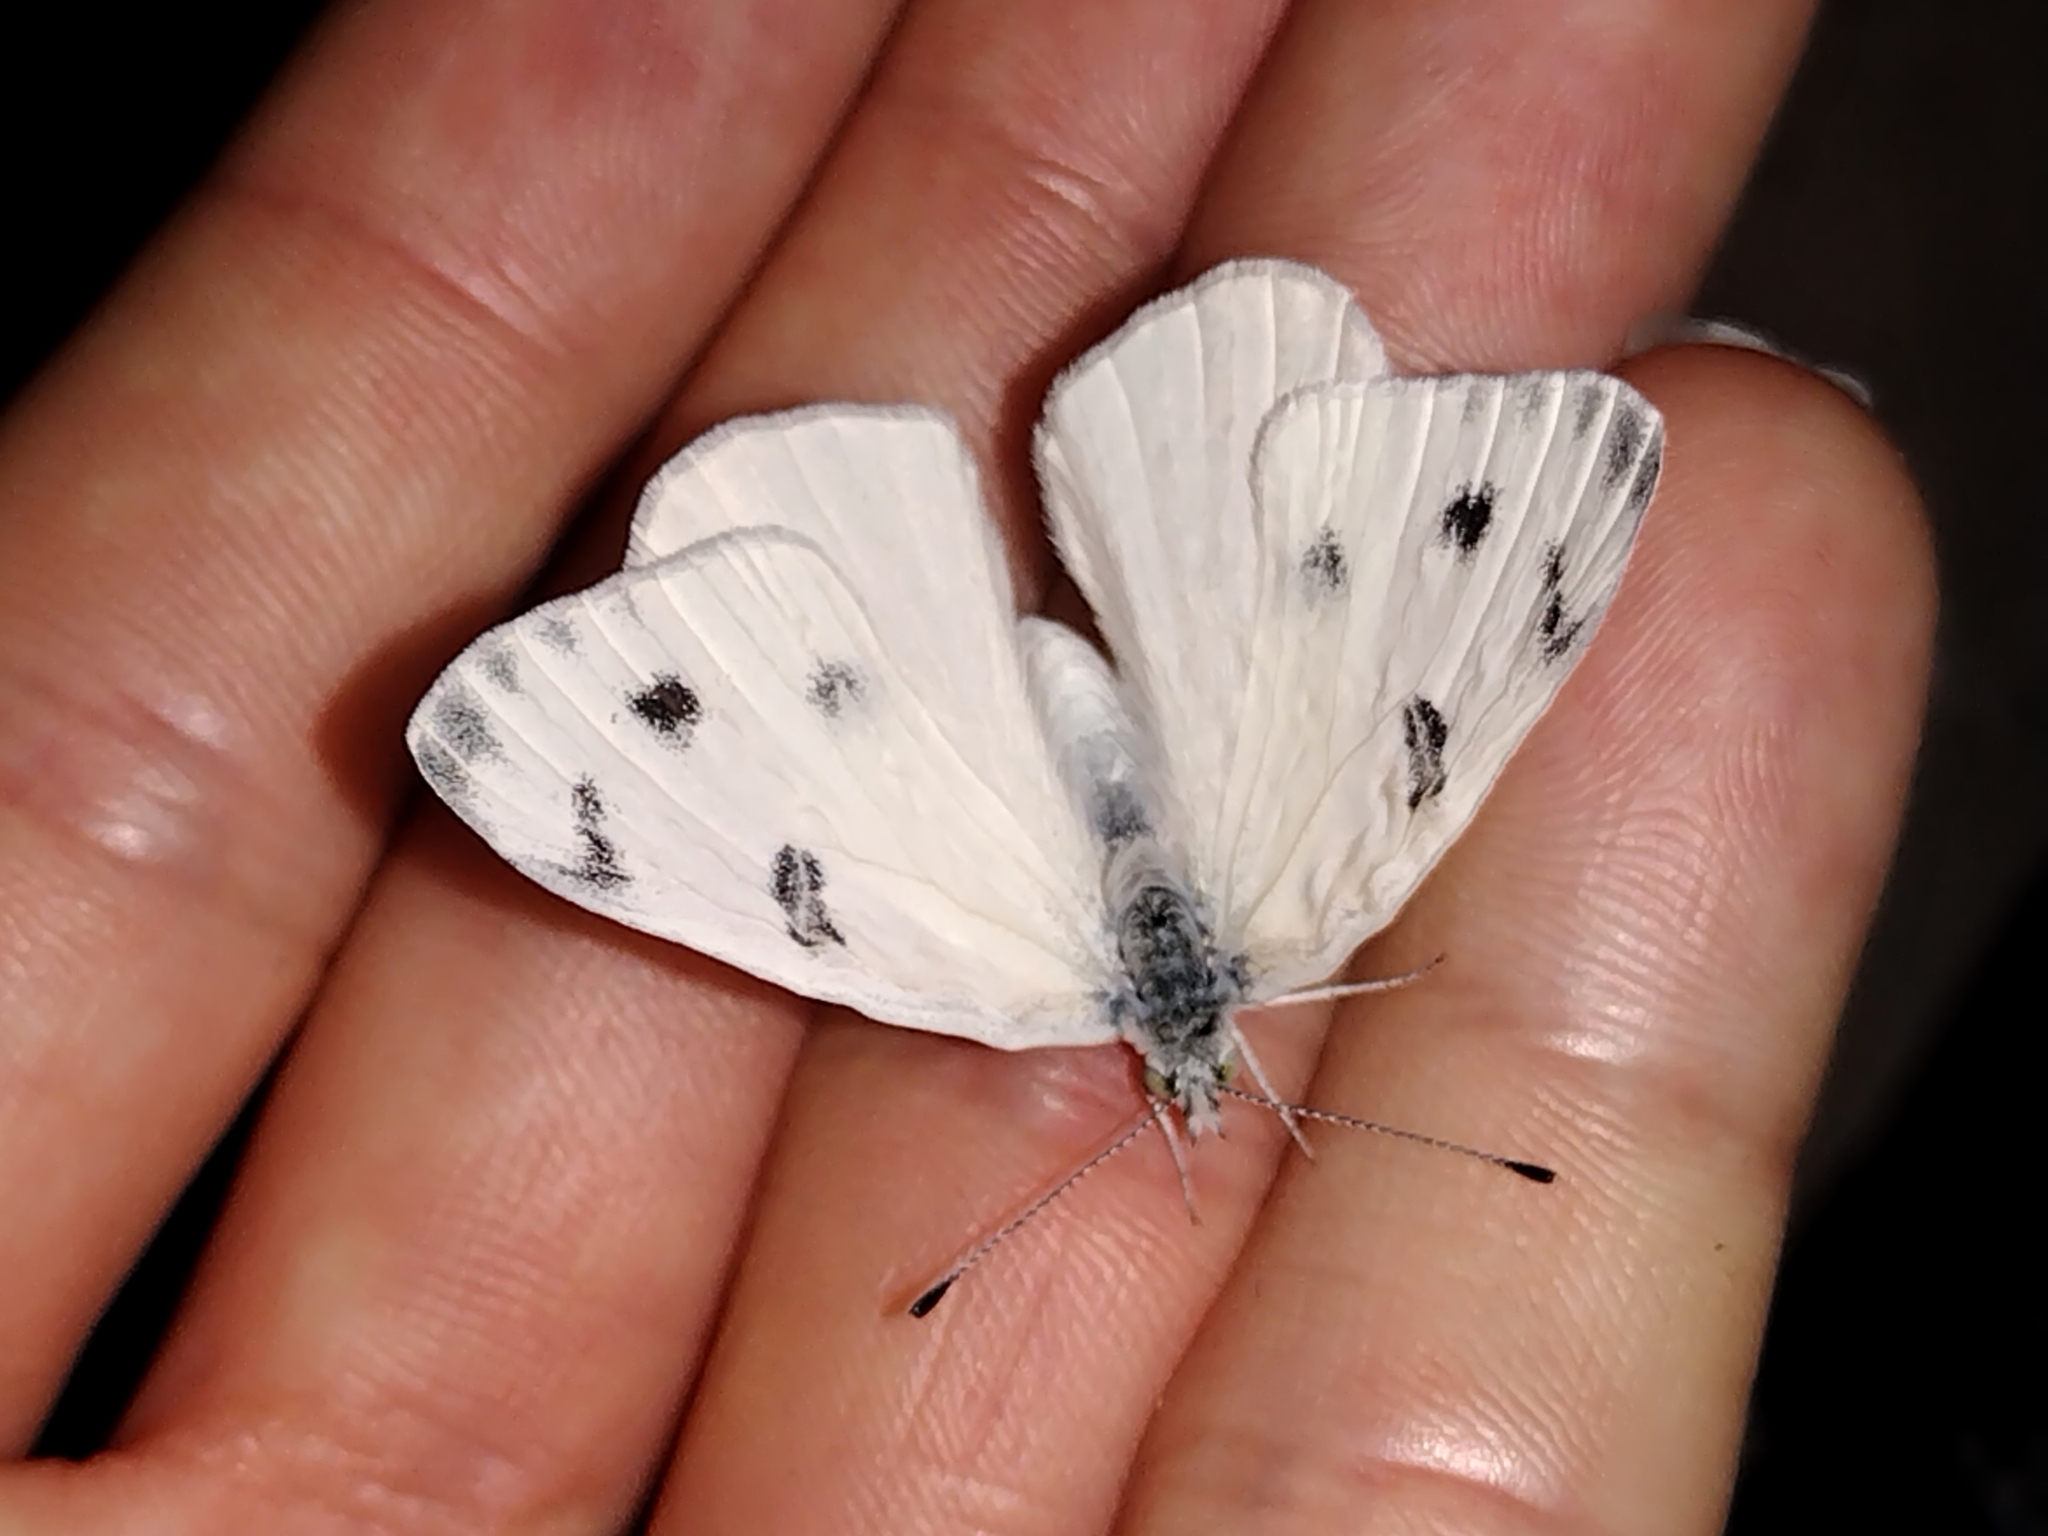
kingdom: Animalia
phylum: Arthropoda
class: Insecta
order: Lepidoptera
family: Pieridae
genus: Pontia
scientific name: Pontia protodice
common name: Checkered white
